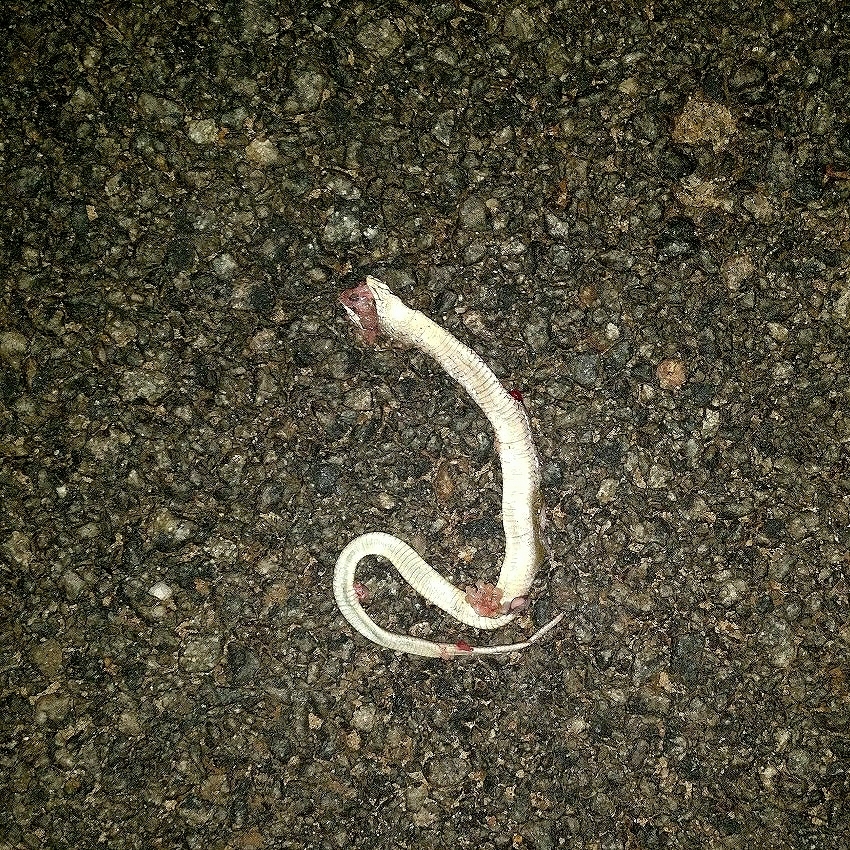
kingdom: Animalia
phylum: Chordata
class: Squamata
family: Colubridae
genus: Fowlea
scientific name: Fowlea piscator
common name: Asiatic water snake
